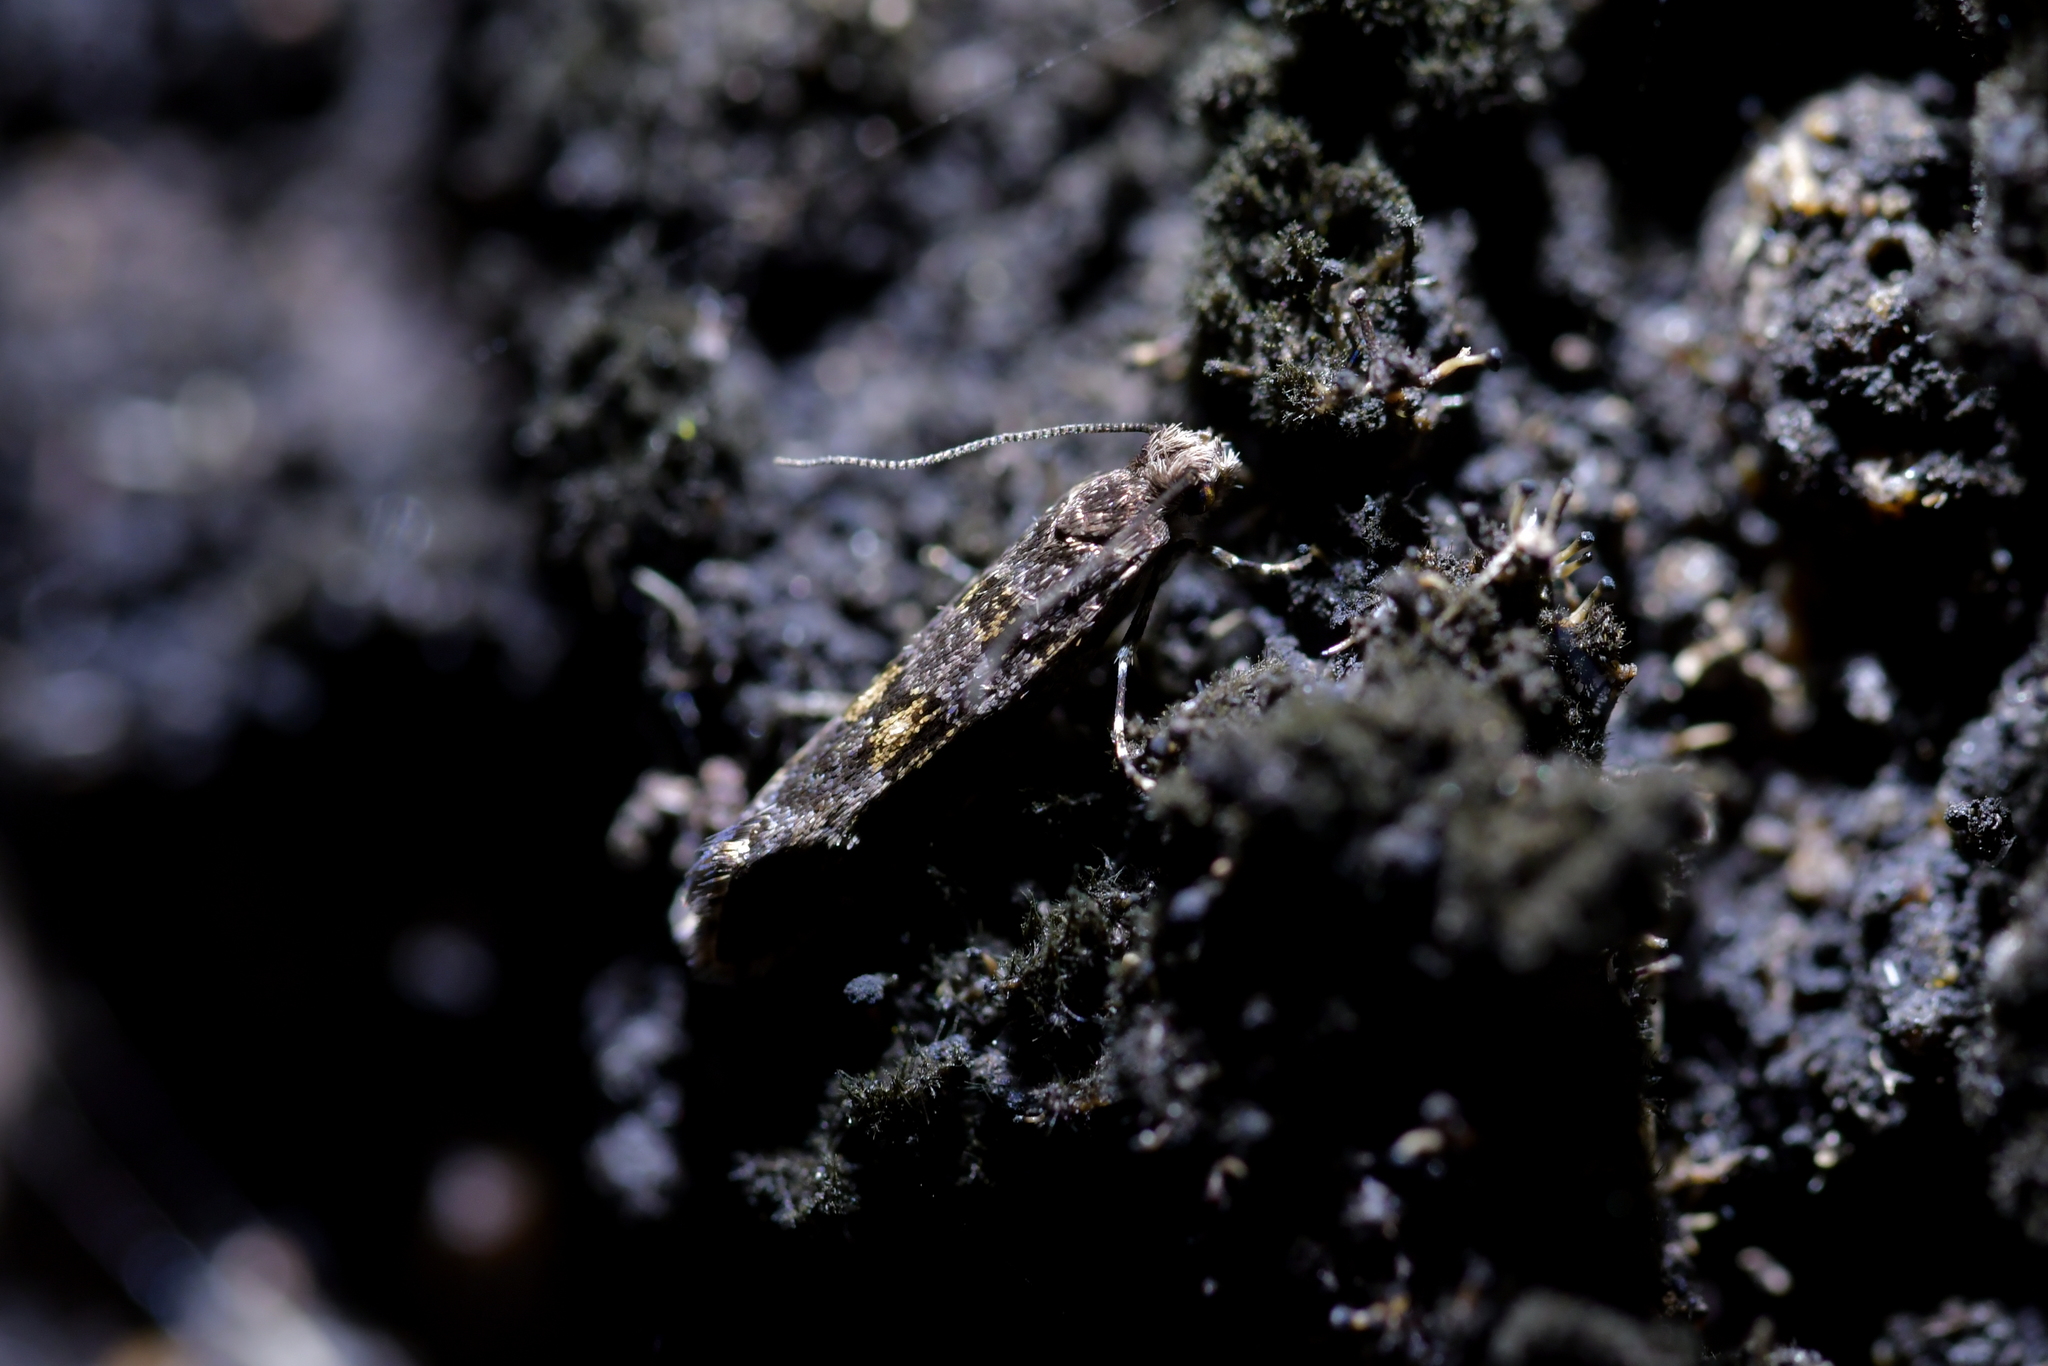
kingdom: Animalia
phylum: Arthropoda
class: Insecta
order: Lepidoptera
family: Tineidae
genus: Archyala
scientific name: Archyala pentazyga
